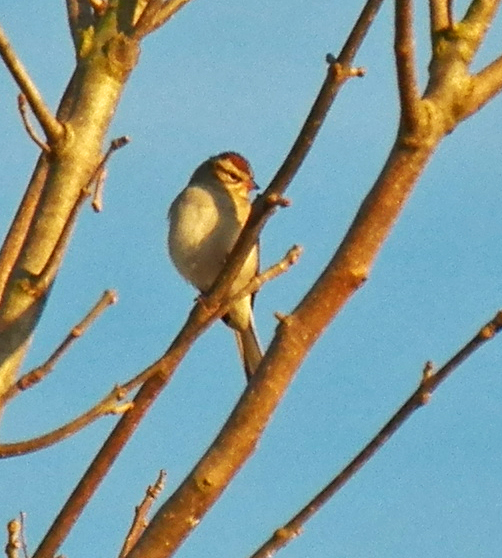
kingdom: Animalia
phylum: Chordata
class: Aves
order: Passeriformes
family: Passerellidae
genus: Spizella
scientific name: Spizella passerina
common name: Chipping sparrow
